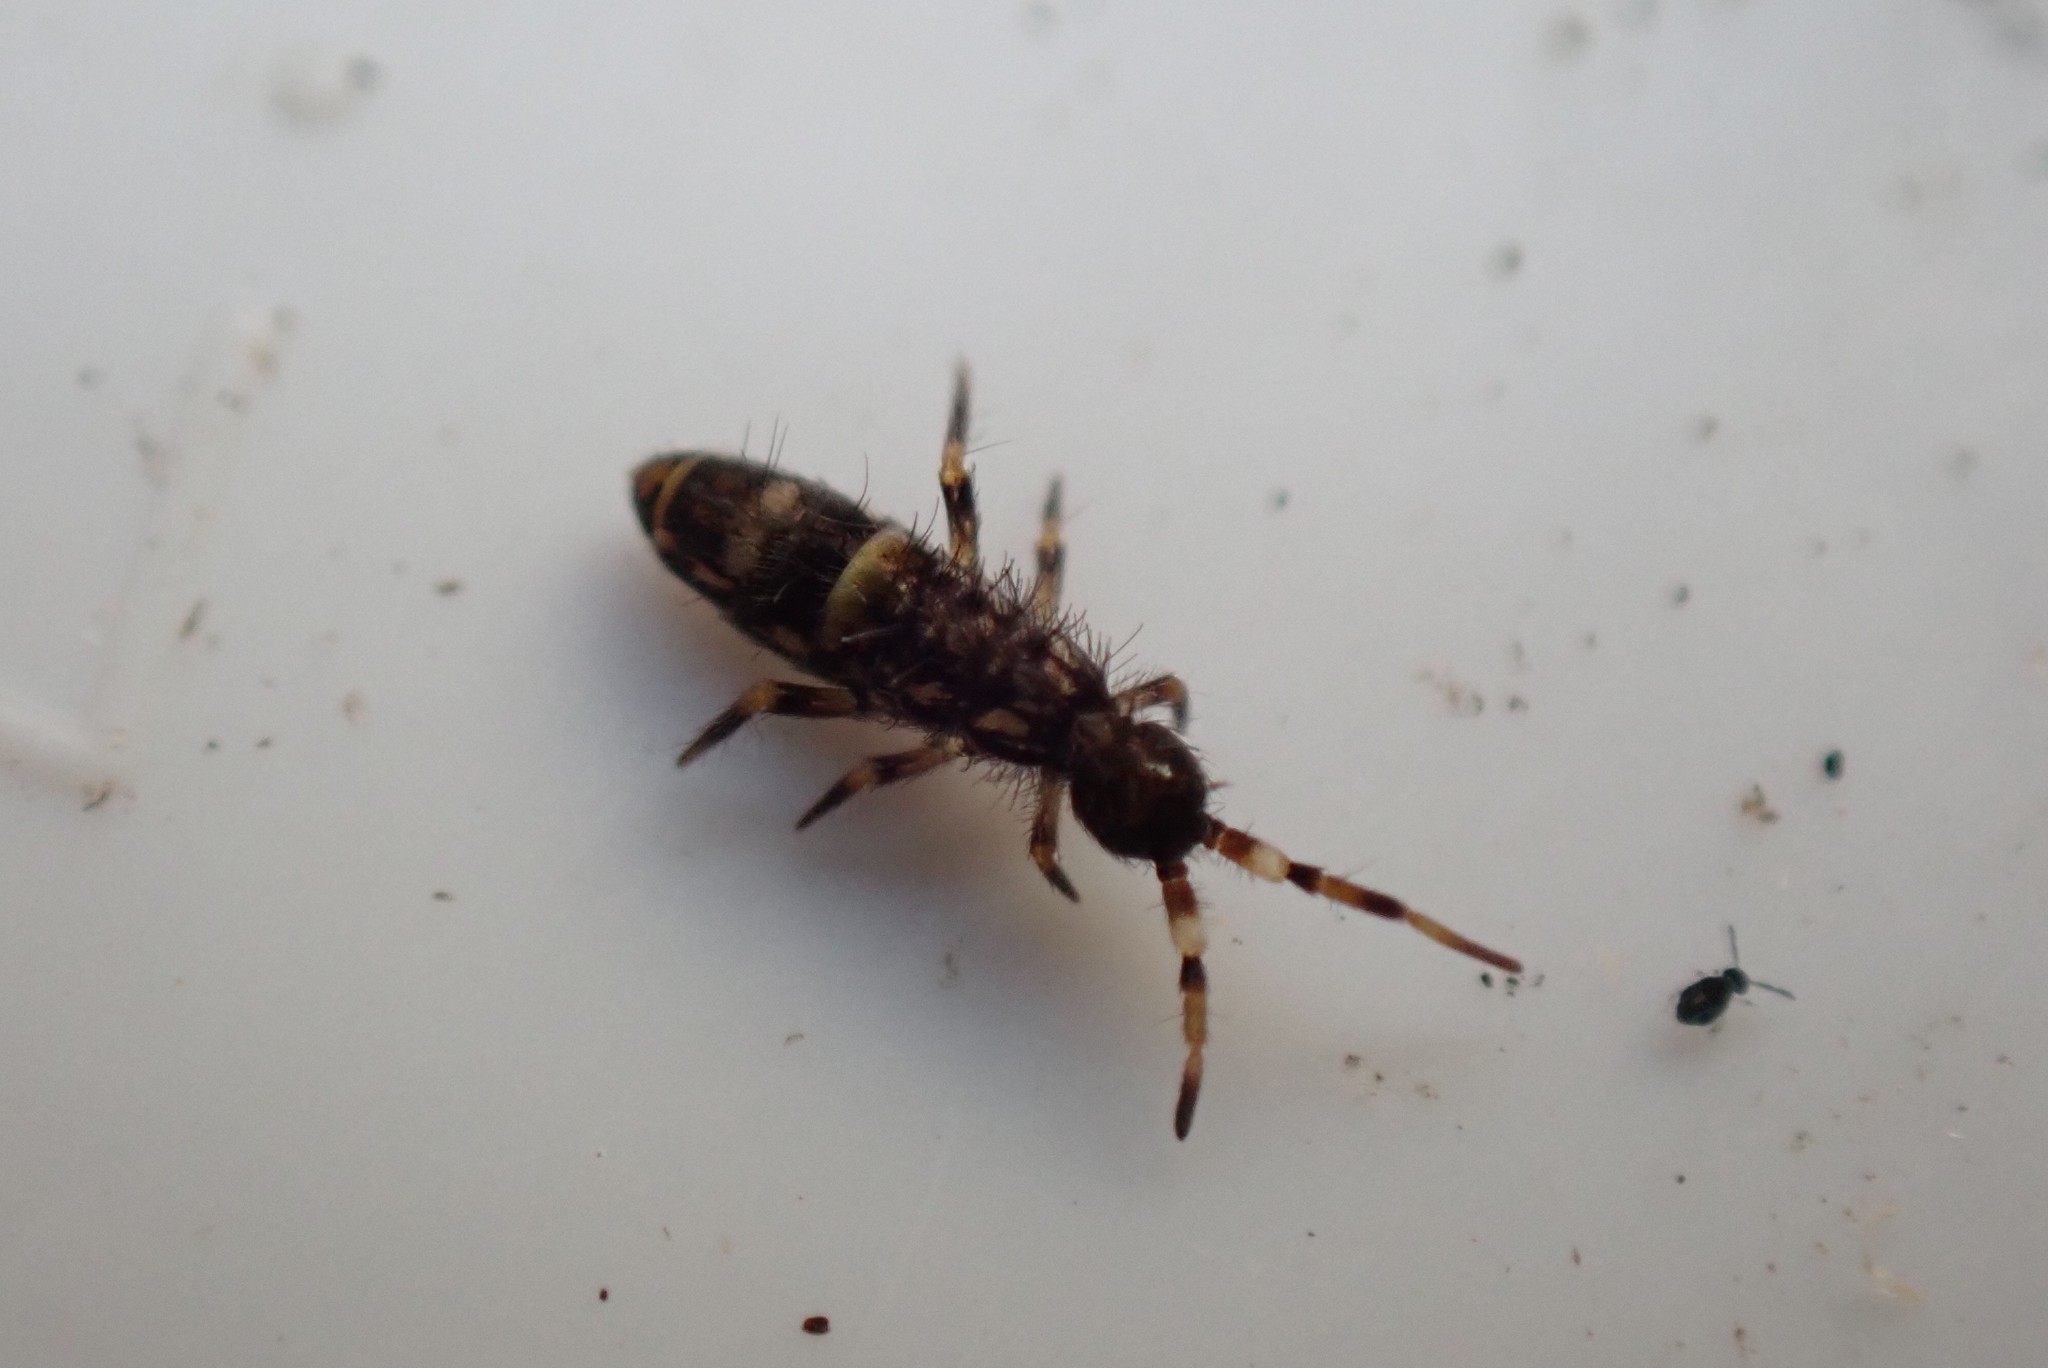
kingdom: Animalia
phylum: Arthropoda
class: Collembola
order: Entomobryomorpha
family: Orchesellidae
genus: Orchesella
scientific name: Orchesella cincta
